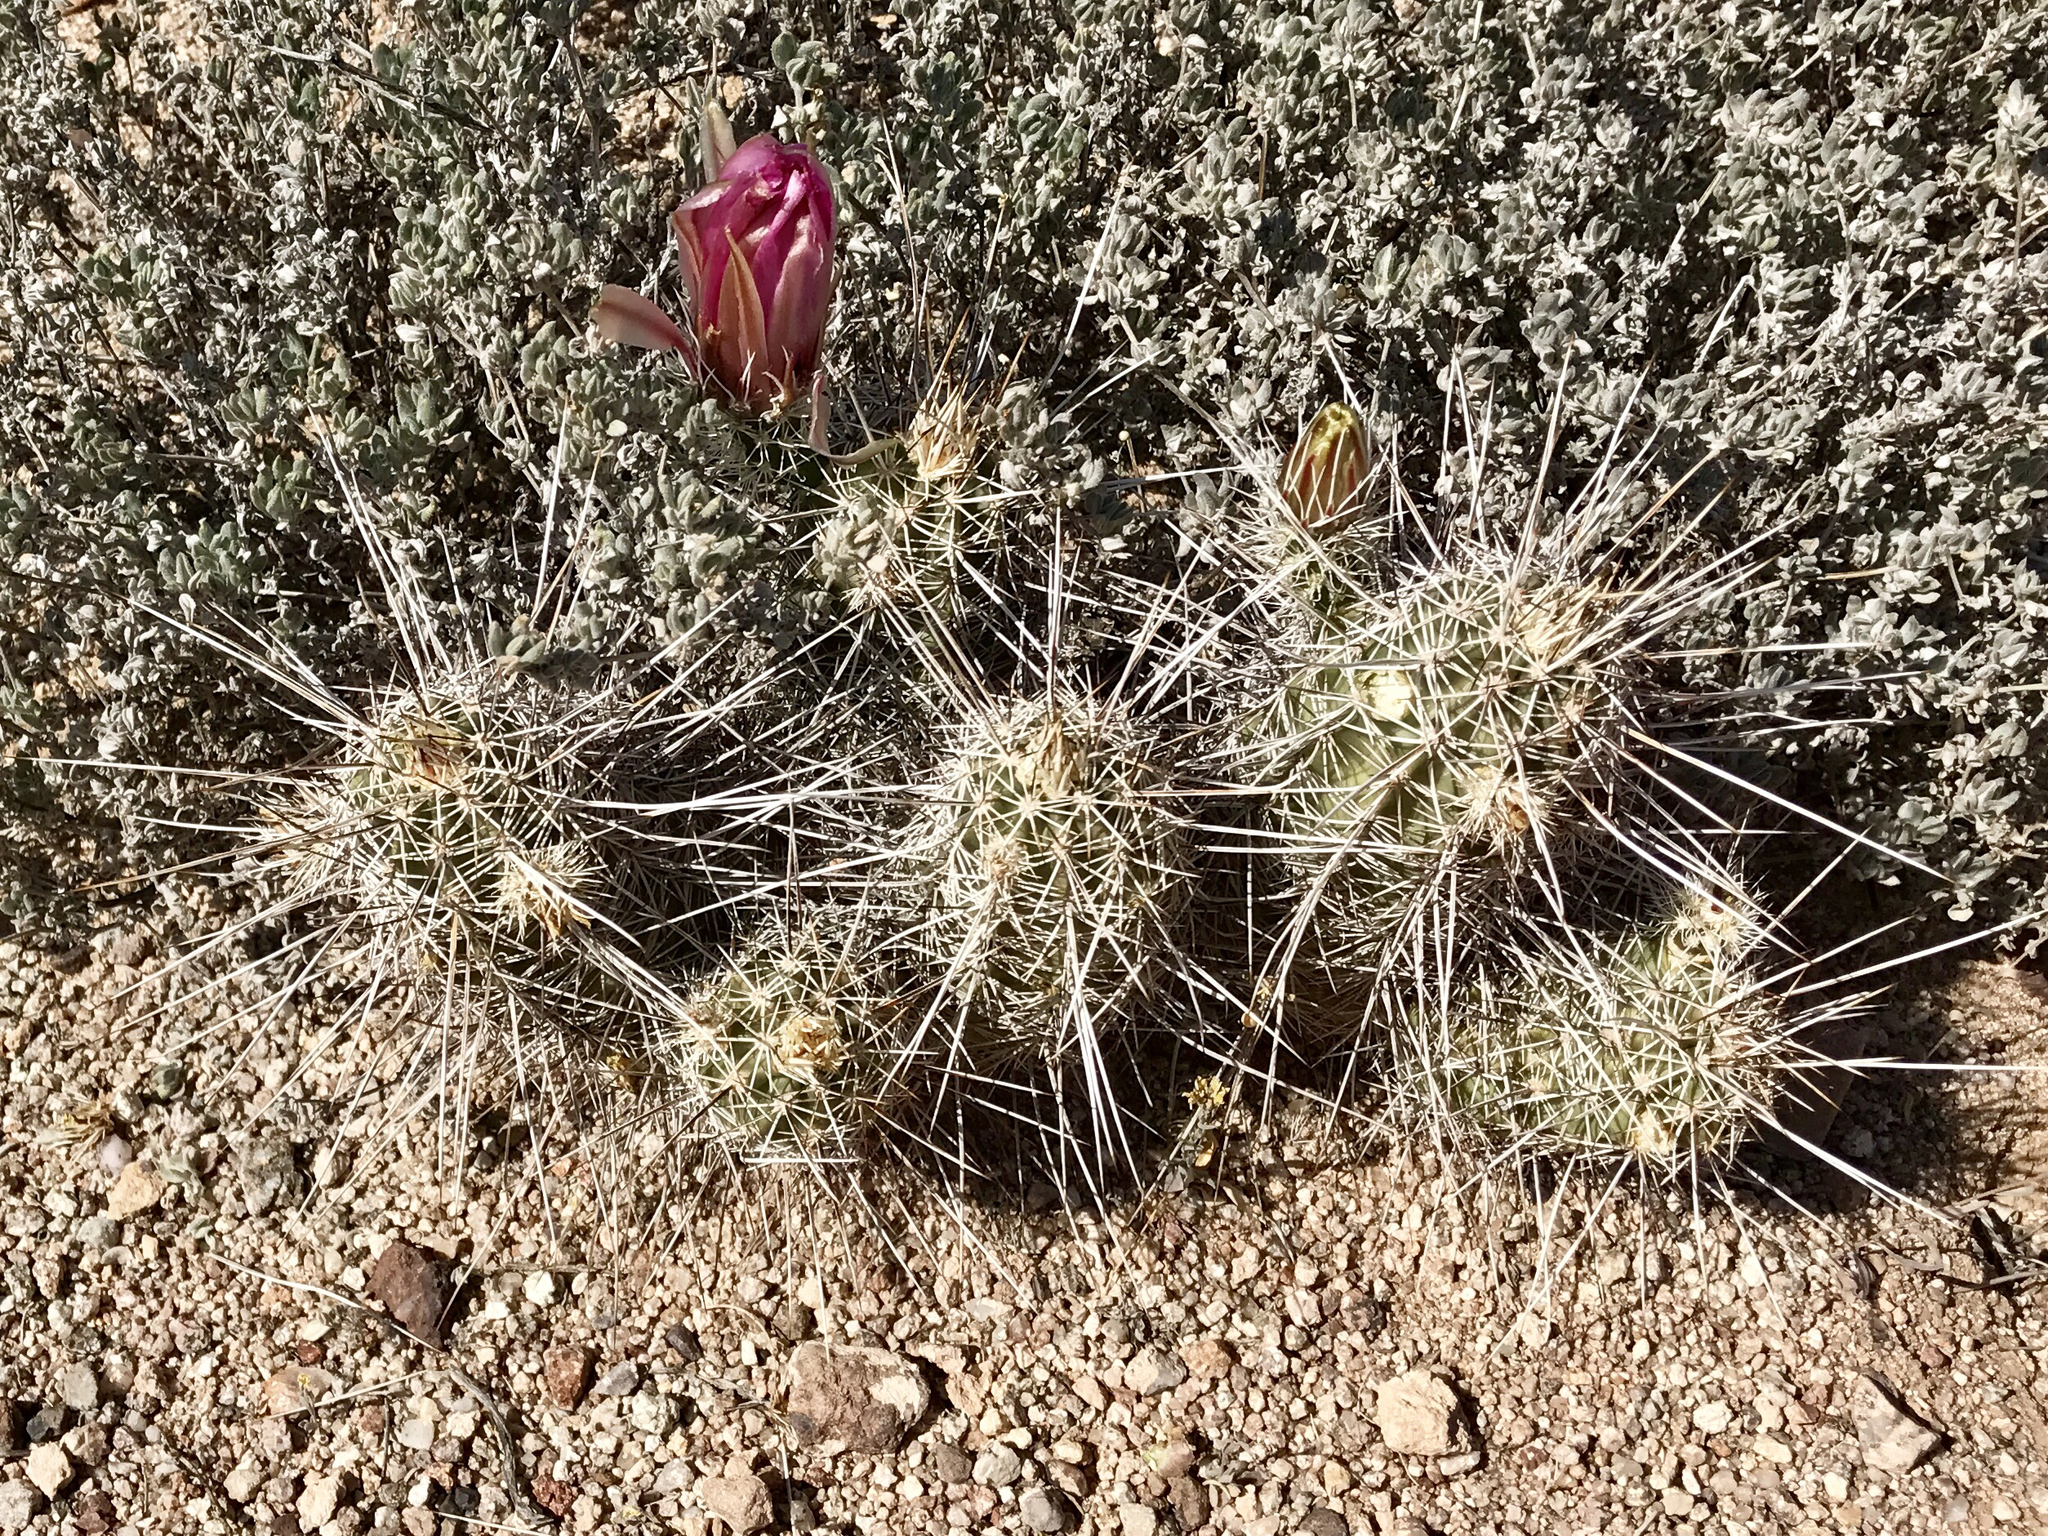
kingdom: Plantae
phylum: Tracheophyta
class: Magnoliopsida
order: Caryophyllales
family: Cactaceae
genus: Echinocereus
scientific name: Echinocereus fasciculatus
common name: Bundle hedgehog
